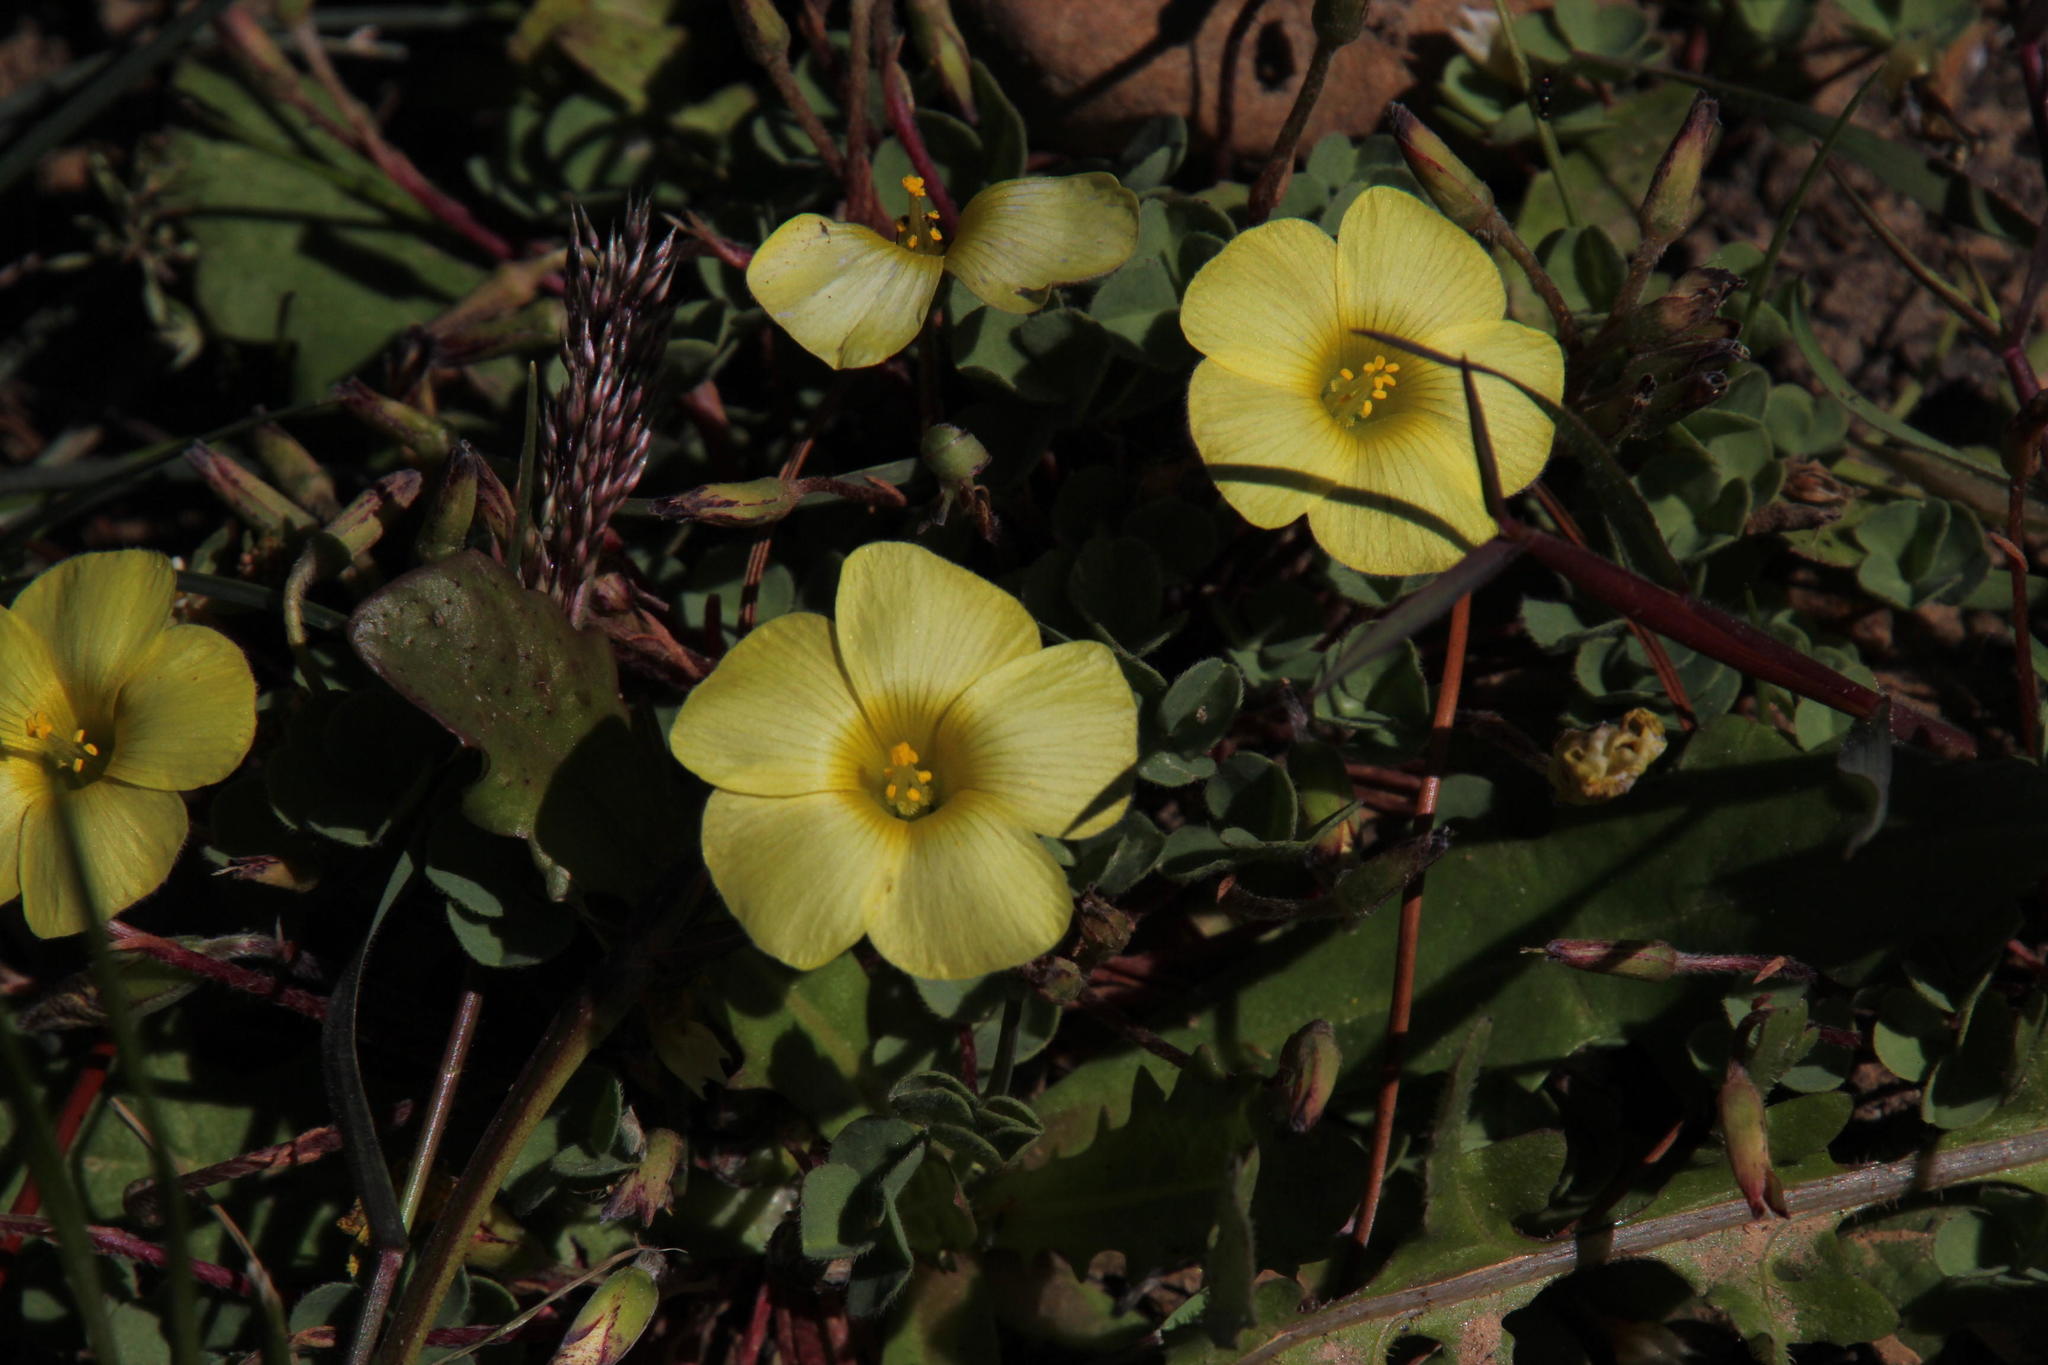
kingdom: Plantae
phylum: Tracheophyta
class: Magnoliopsida
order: Oxalidales
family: Oxalidaceae
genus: Oxalis
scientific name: Oxalis obtusa
